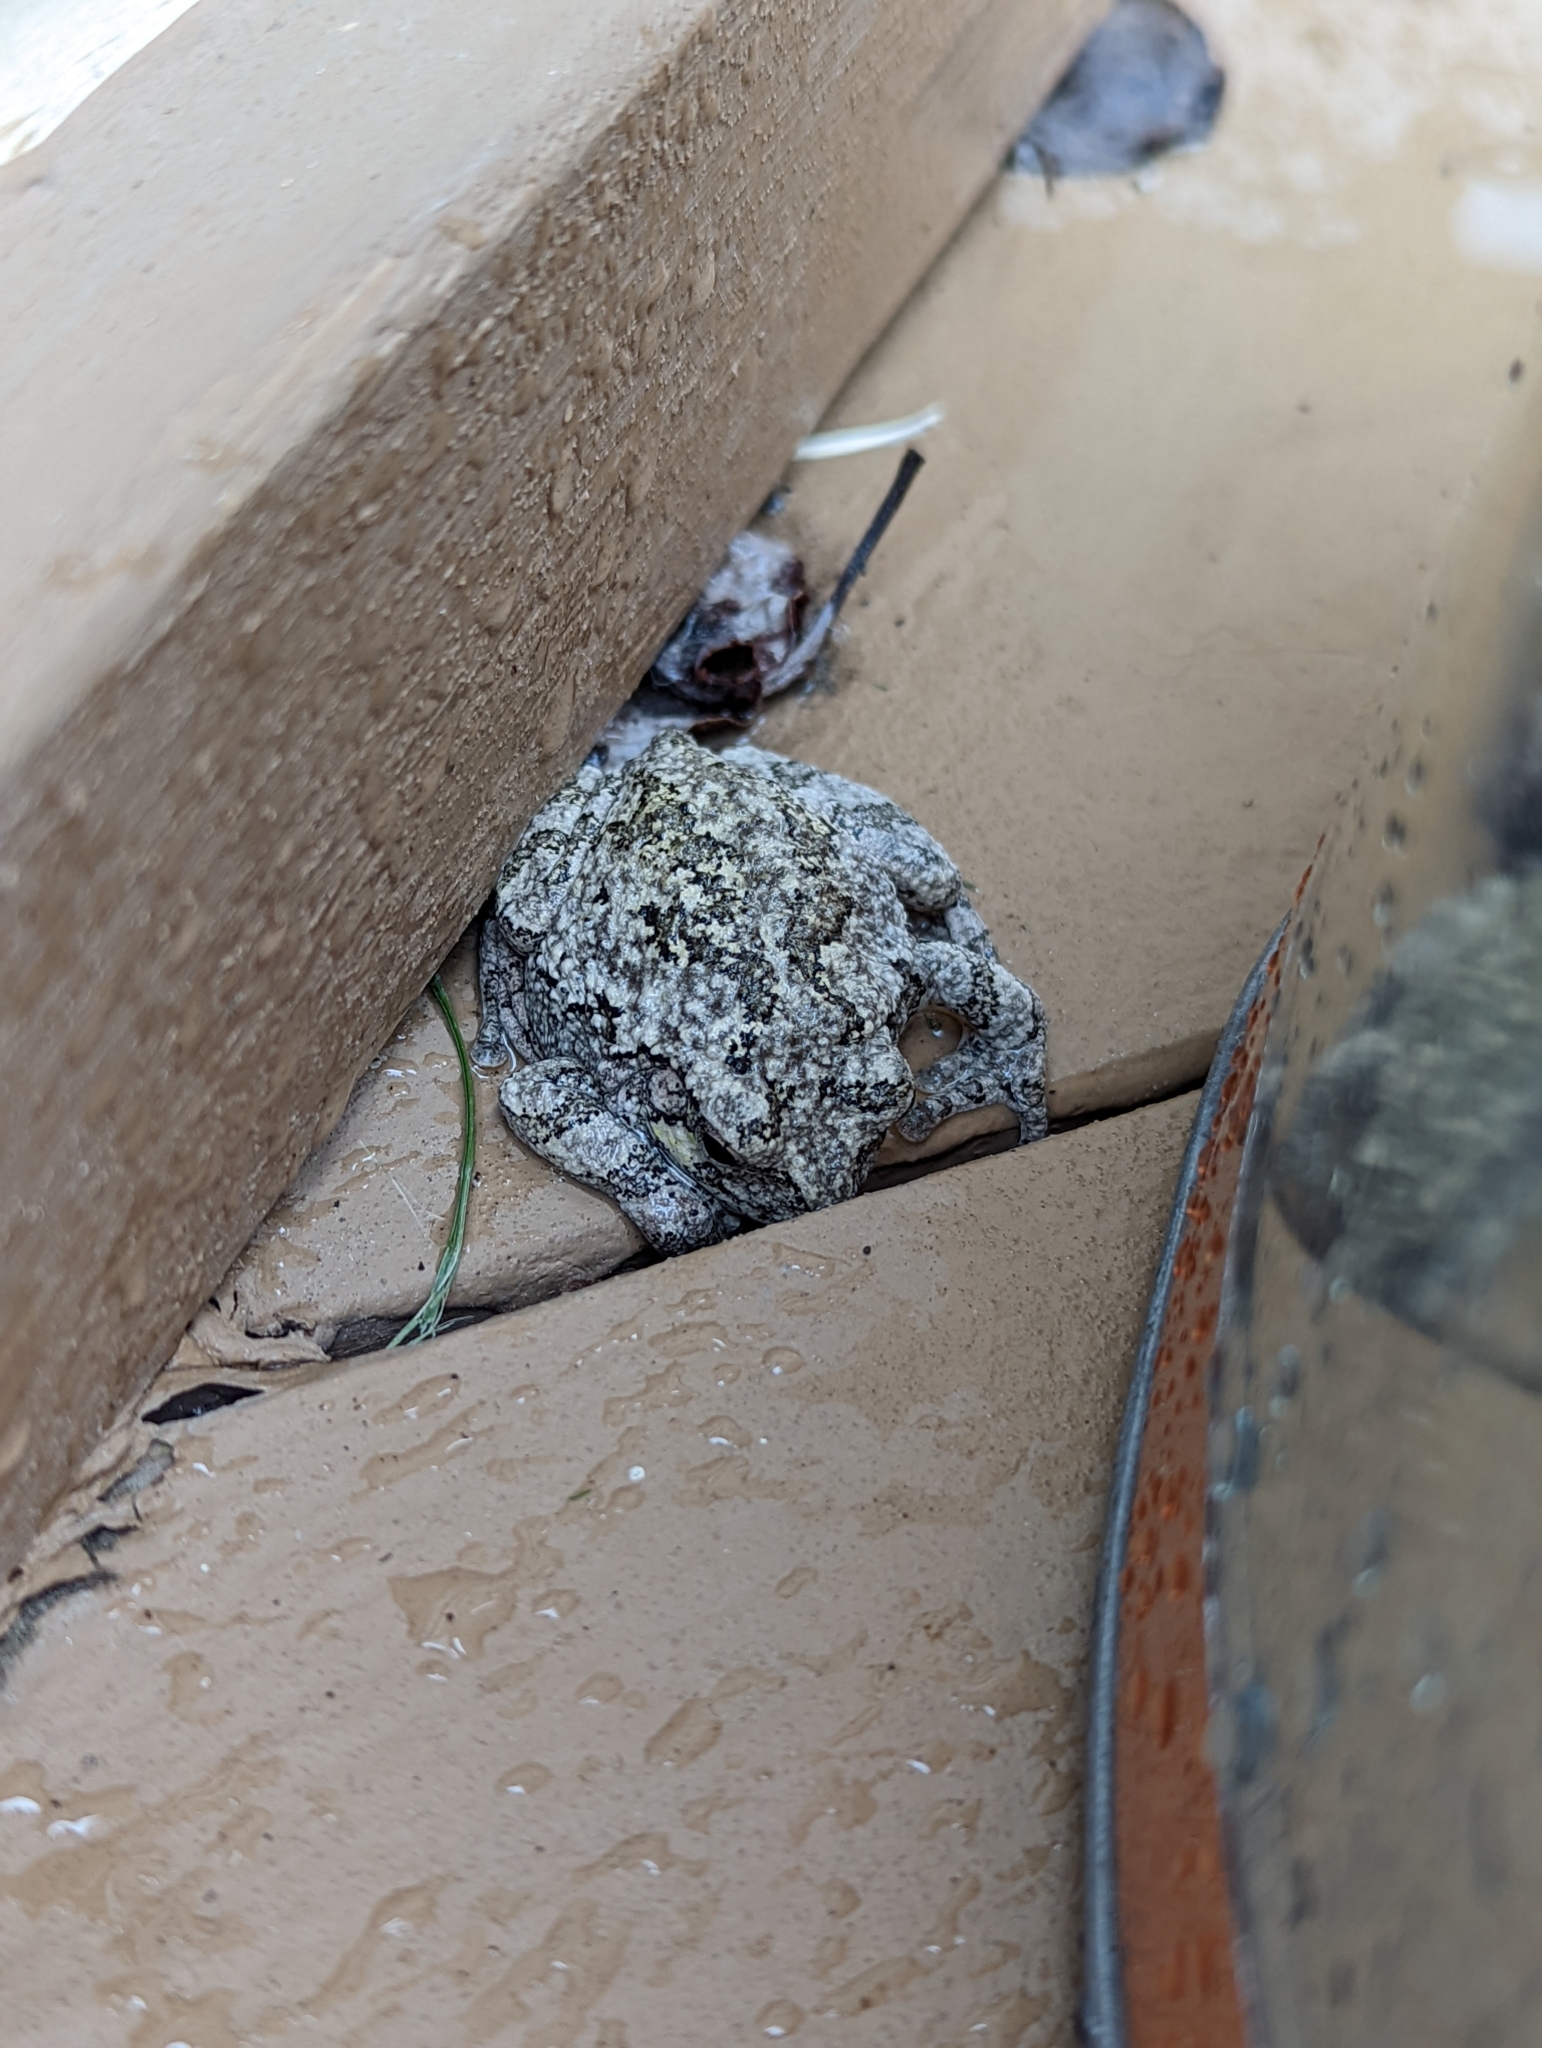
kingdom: Animalia
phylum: Chordata
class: Amphibia
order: Anura
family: Hylidae
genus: Hyla
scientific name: Hyla
